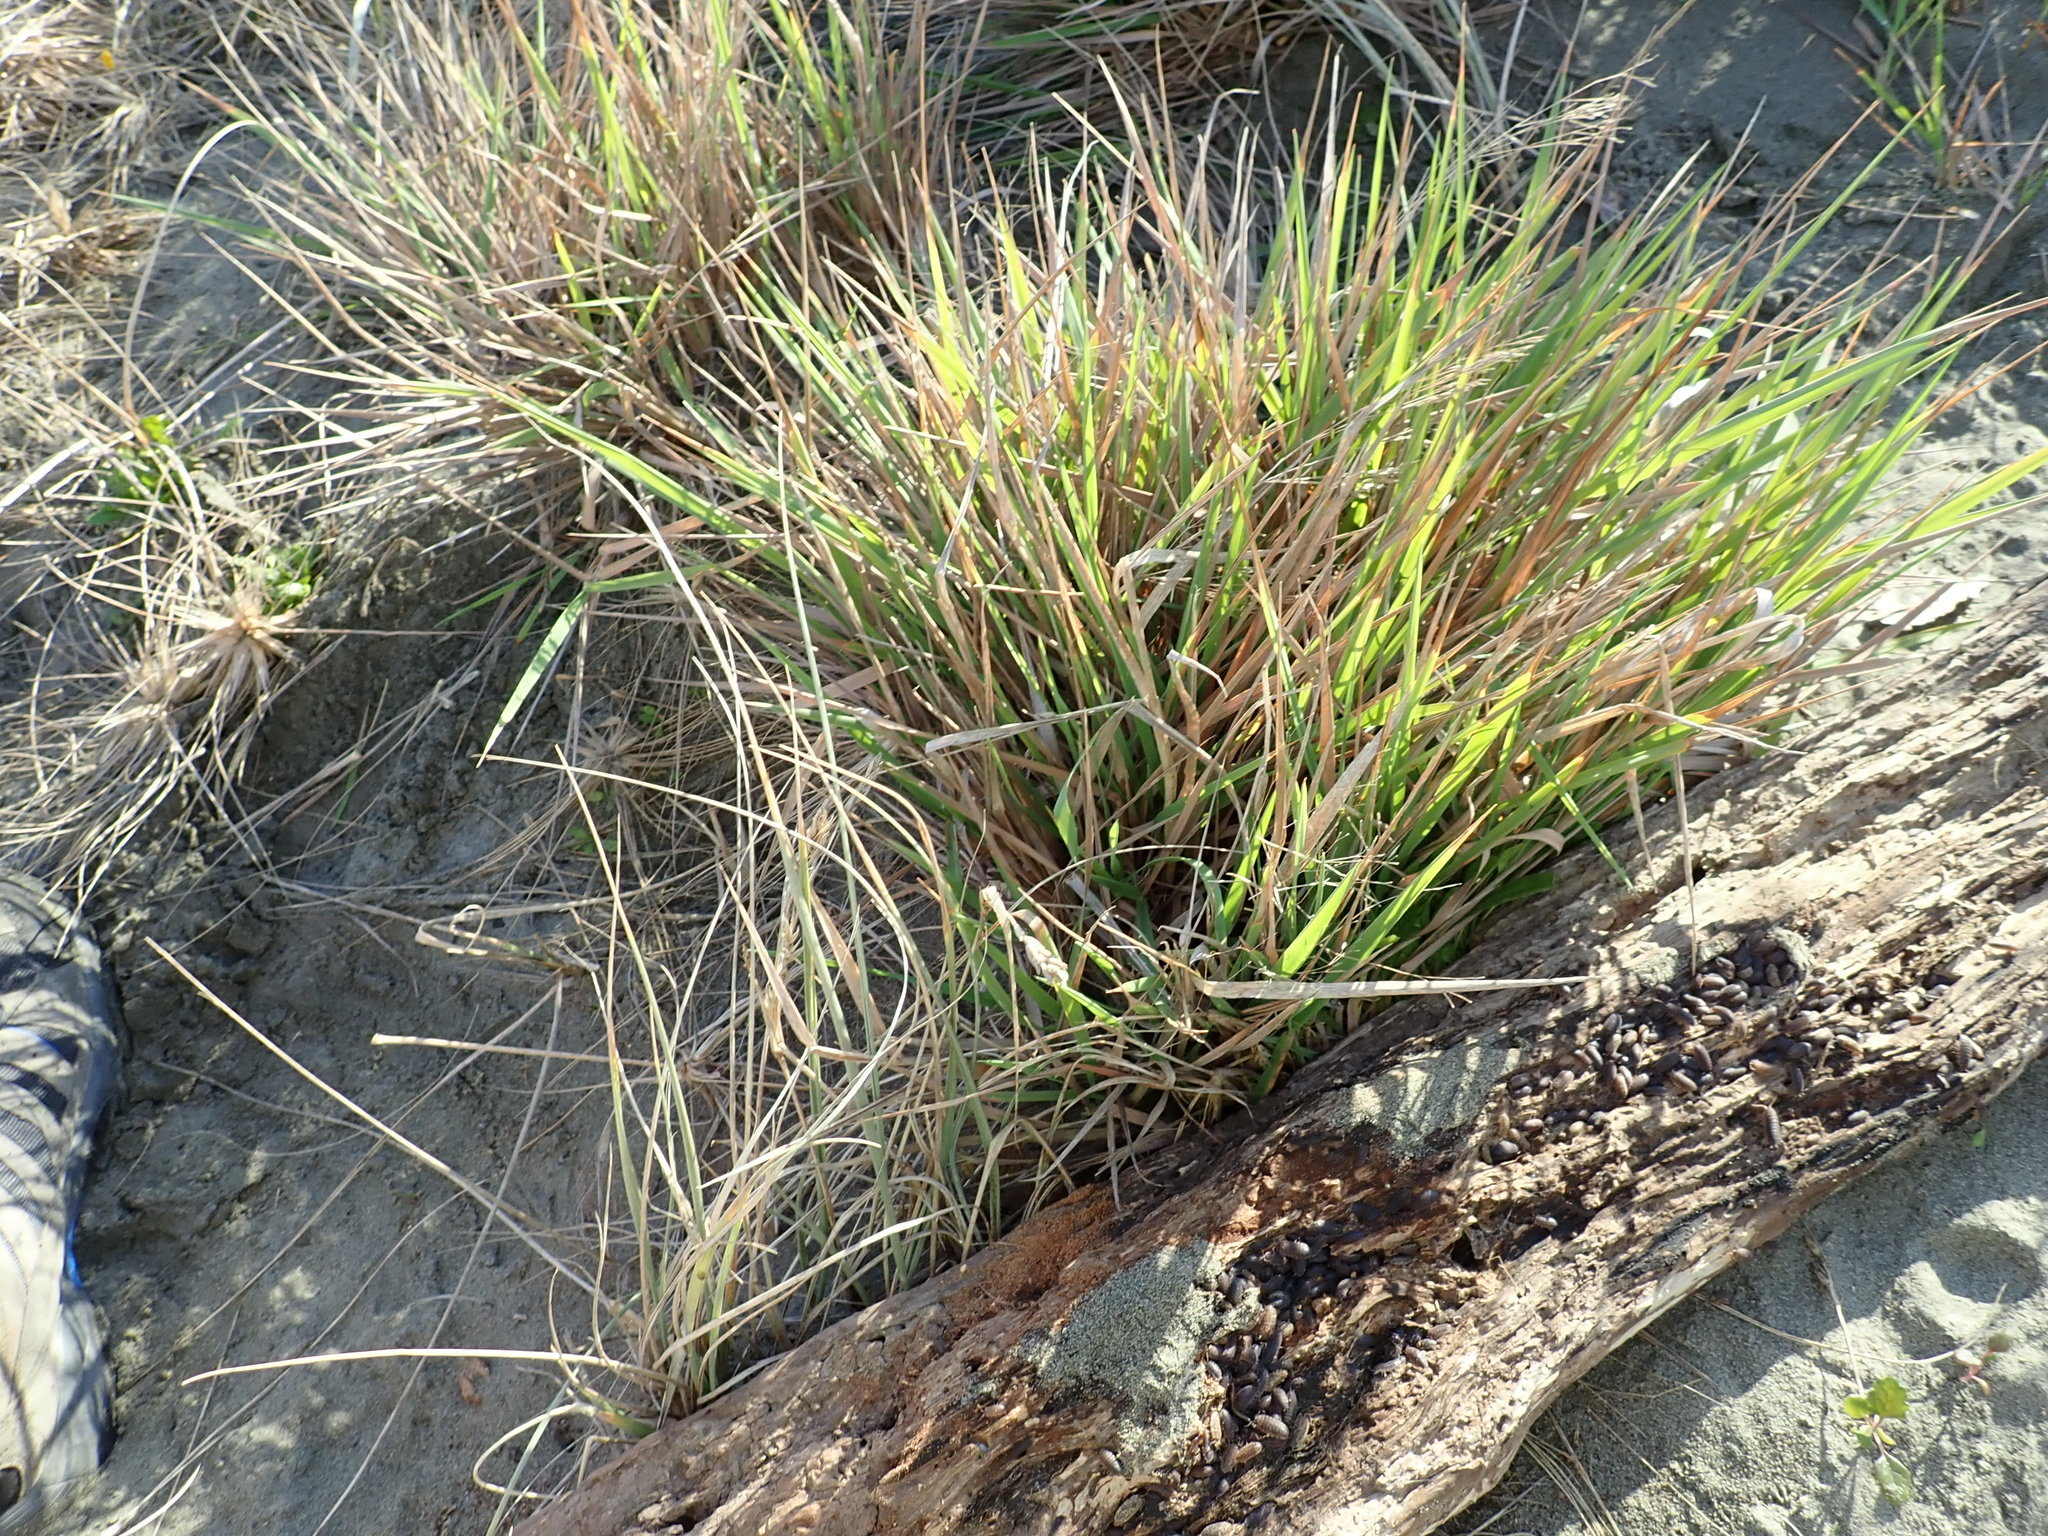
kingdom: Plantae
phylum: Tracheophyta
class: Liliopsida
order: Poales
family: Poaceae
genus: Lachnagrostis
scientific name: Lachnagrostis billardierei
